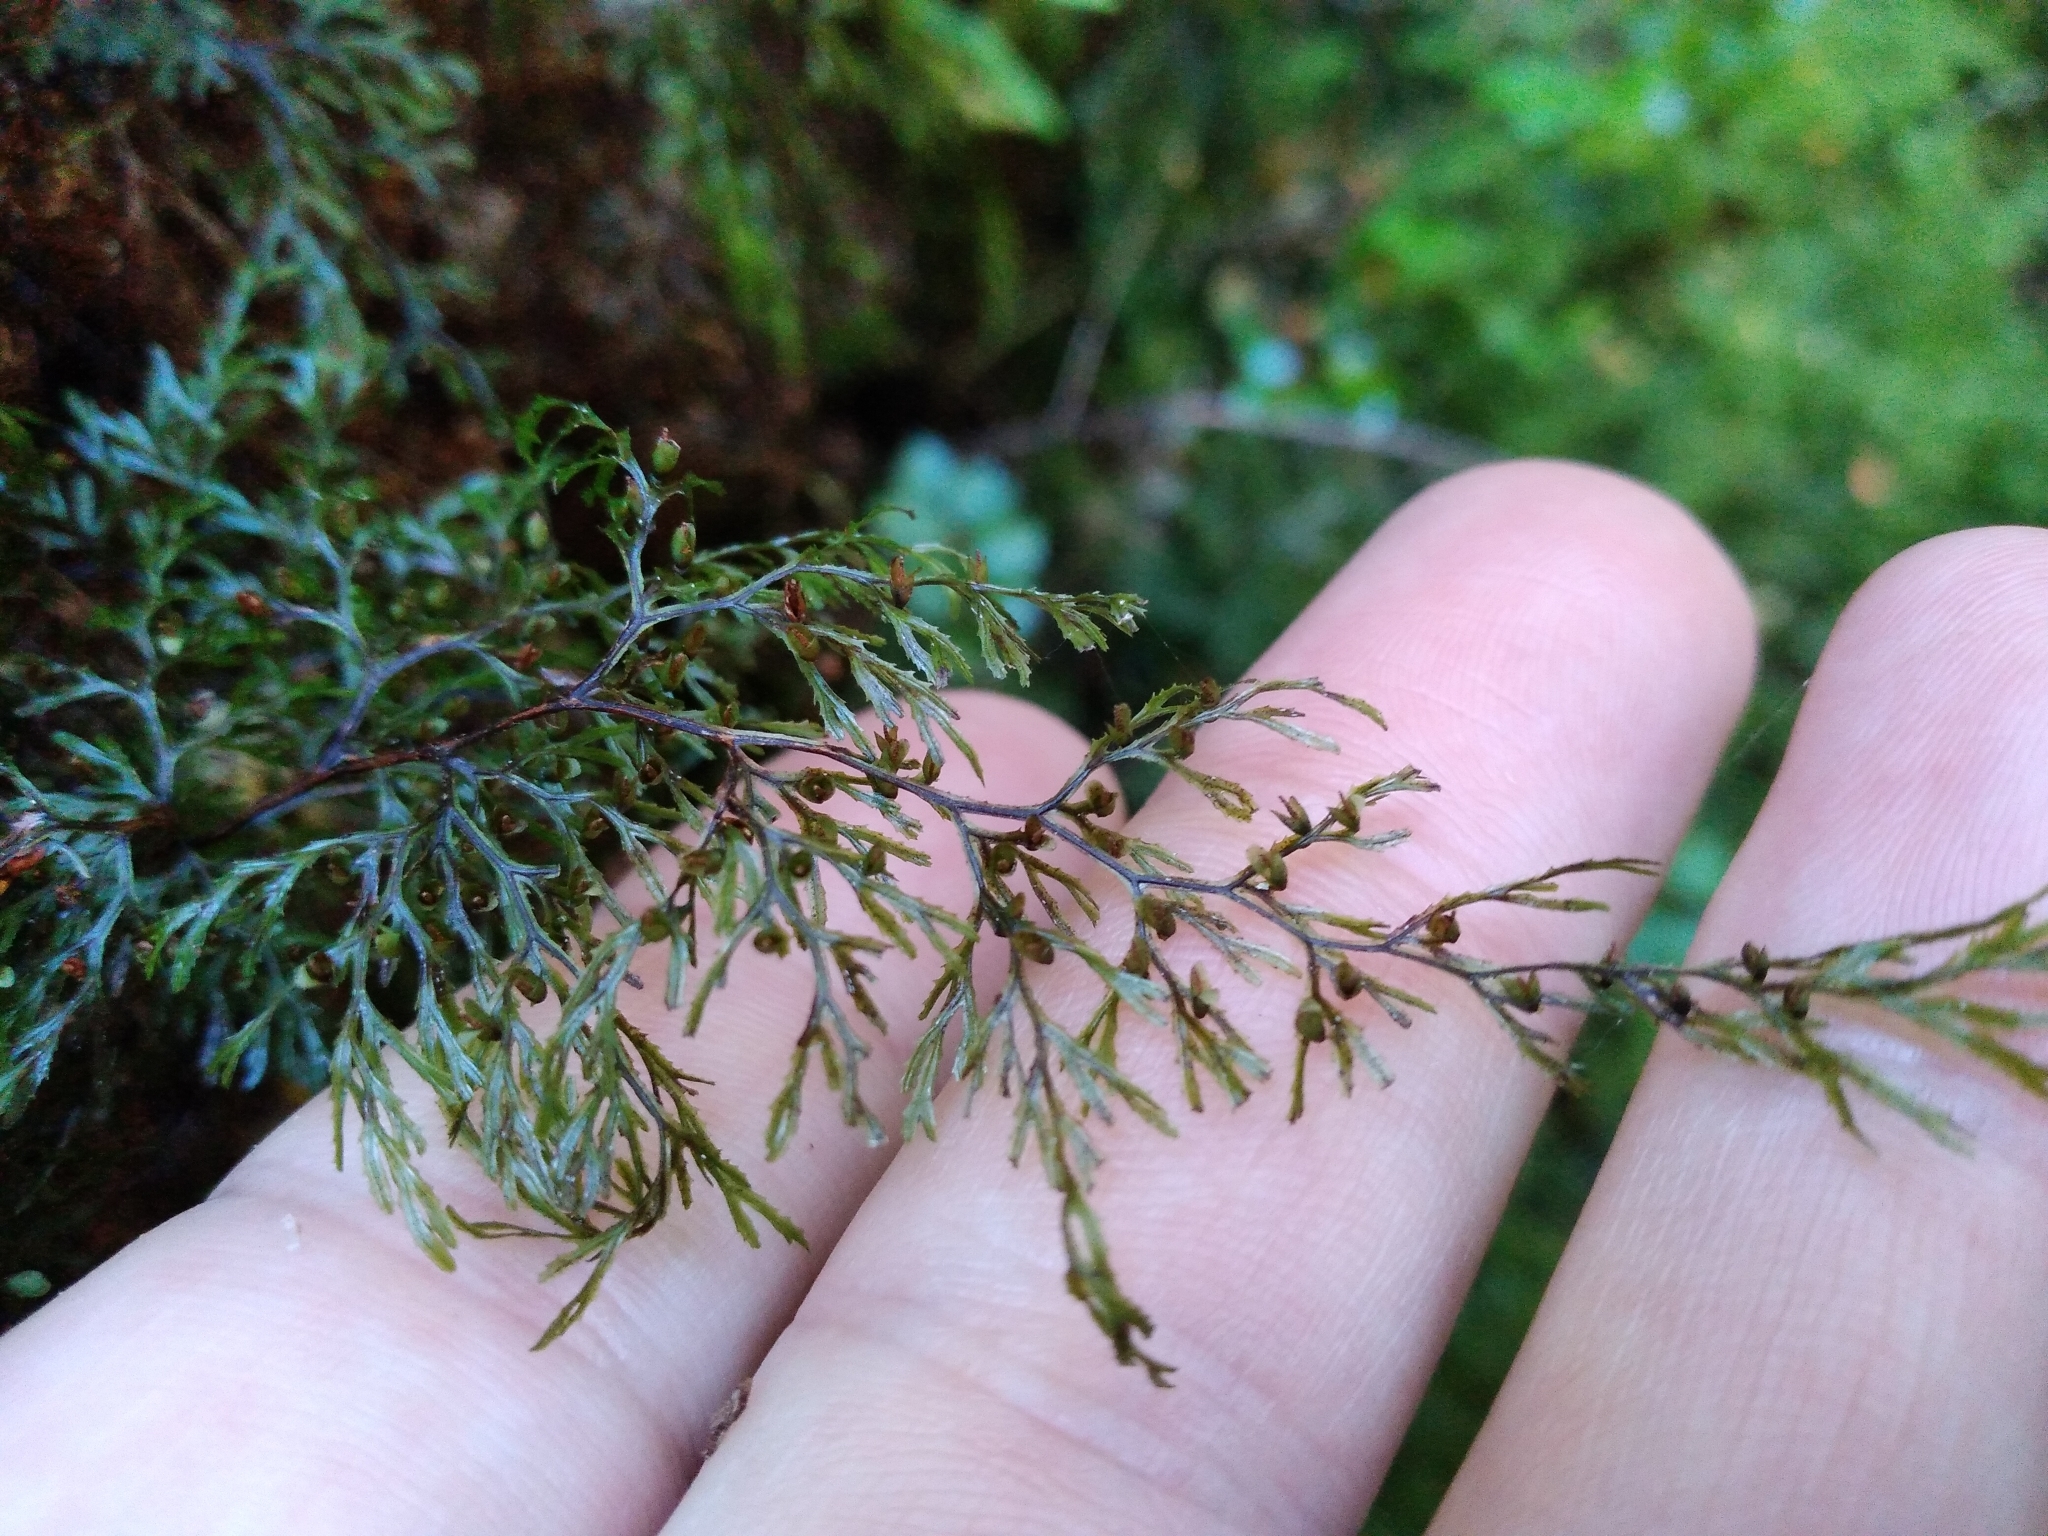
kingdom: Plantae
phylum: Tracheophyta
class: Polypodiopsida
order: Hymenophyllales
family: Hymenophyllaceae
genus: Hymenophyllum
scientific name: Hymenophyllum multifidum
